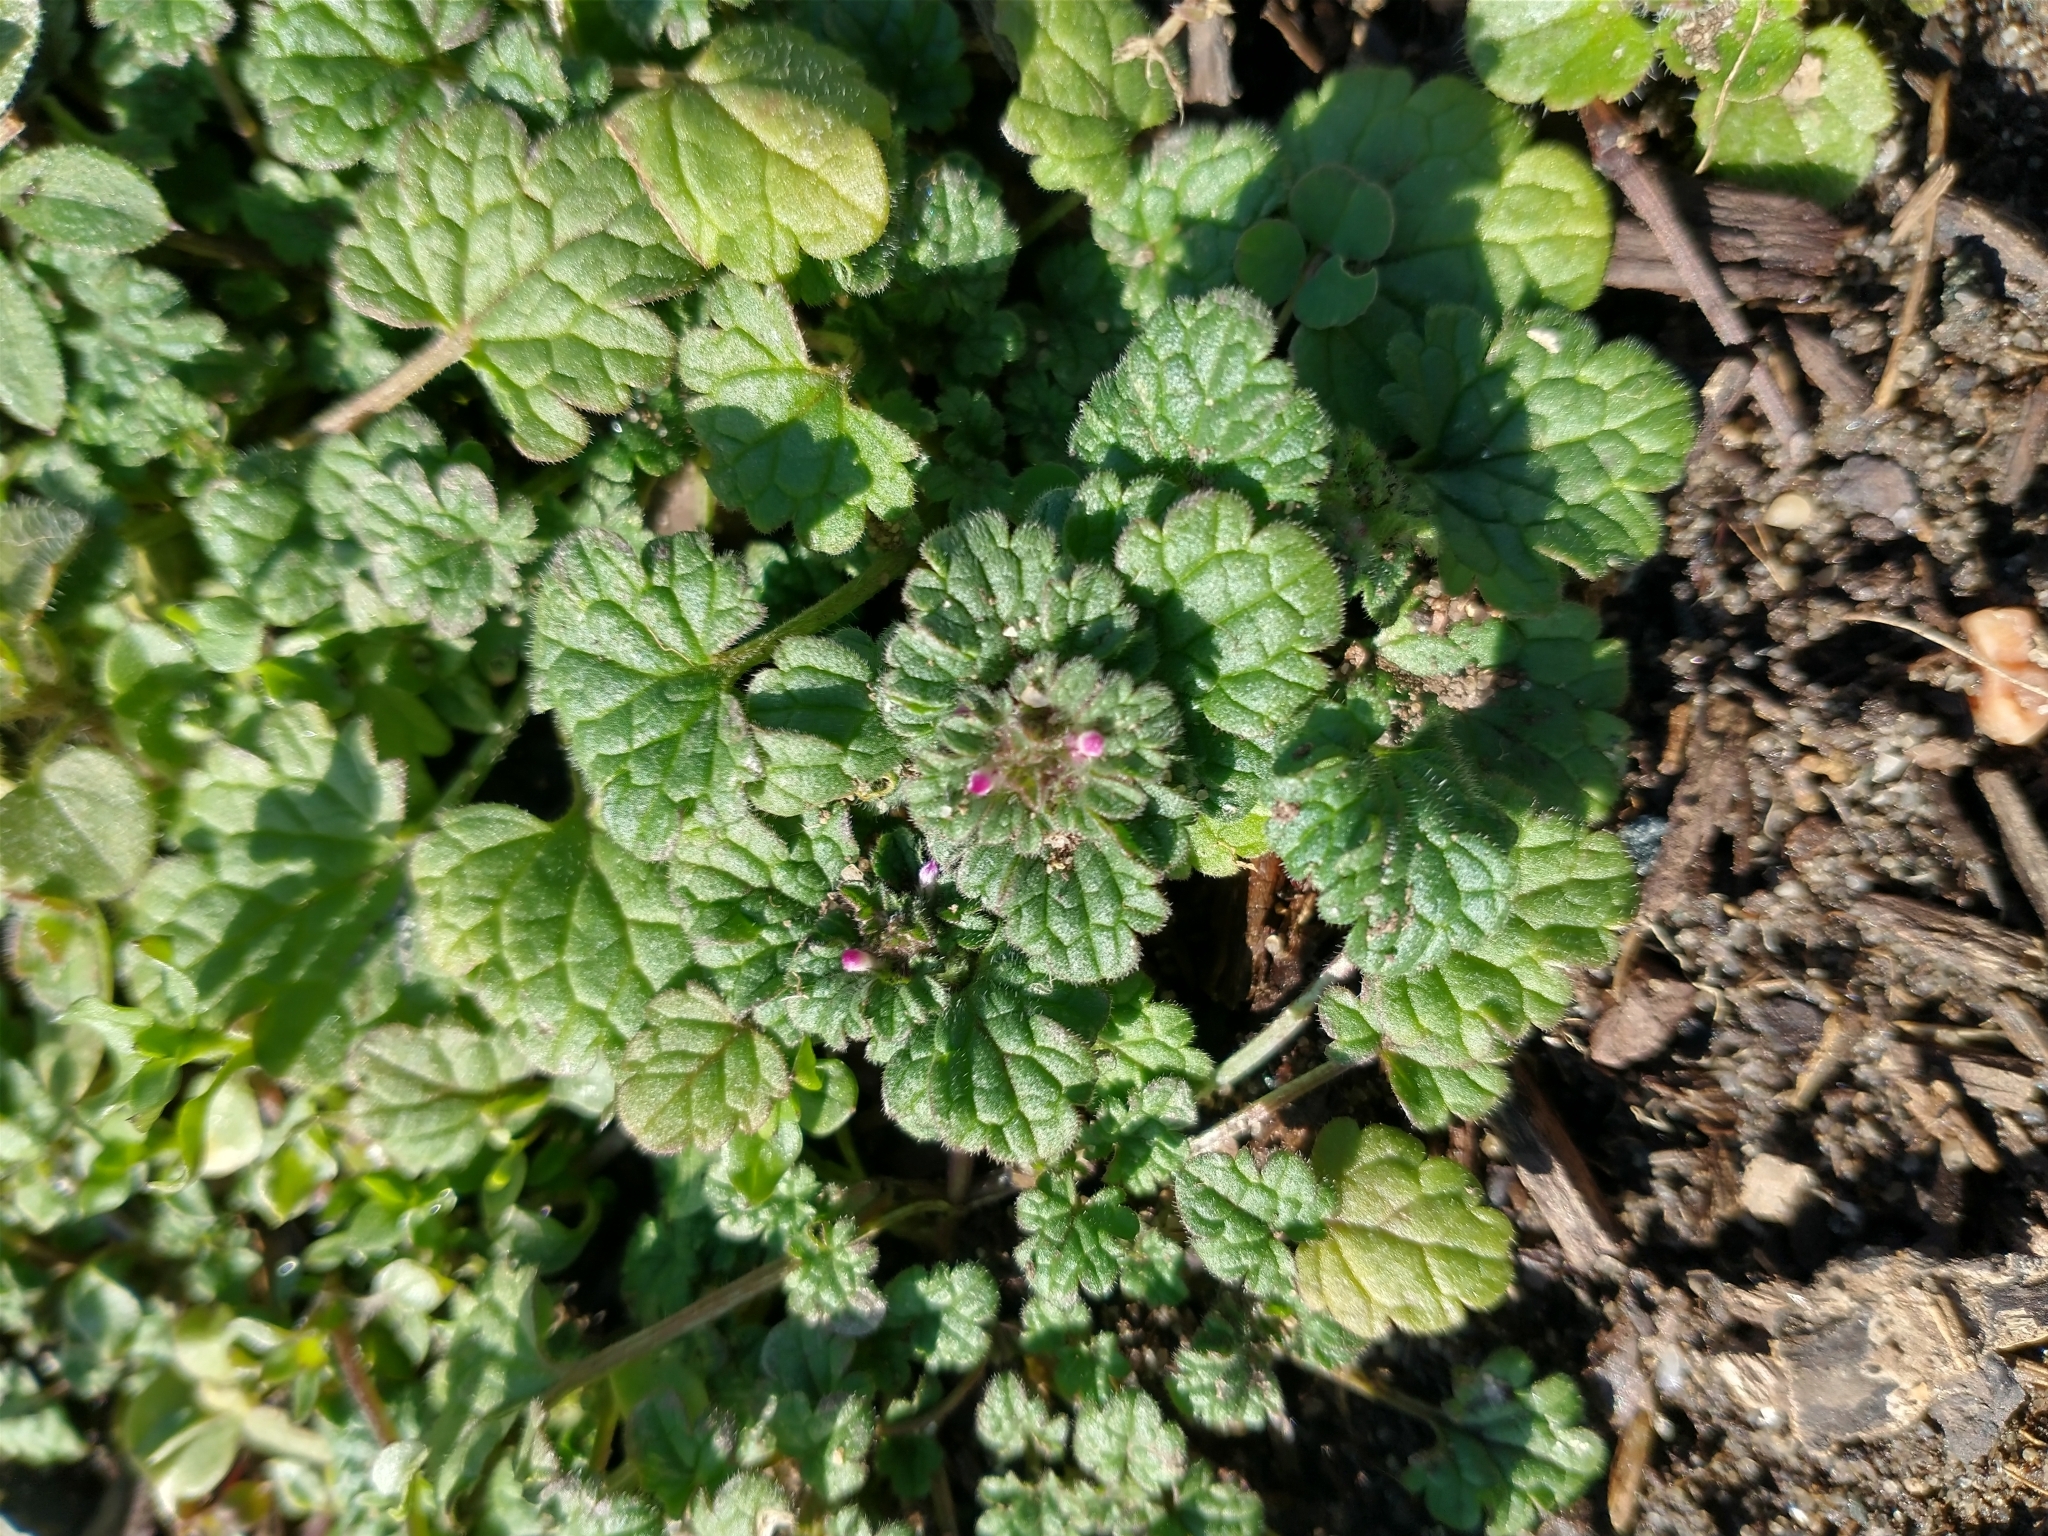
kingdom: Plantae
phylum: Tracheophyta
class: Magnoliopsida
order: Lamiales
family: Lamiaceae
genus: Lamium
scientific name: Lamium amplexicaule
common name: Henbit dead-nettle
